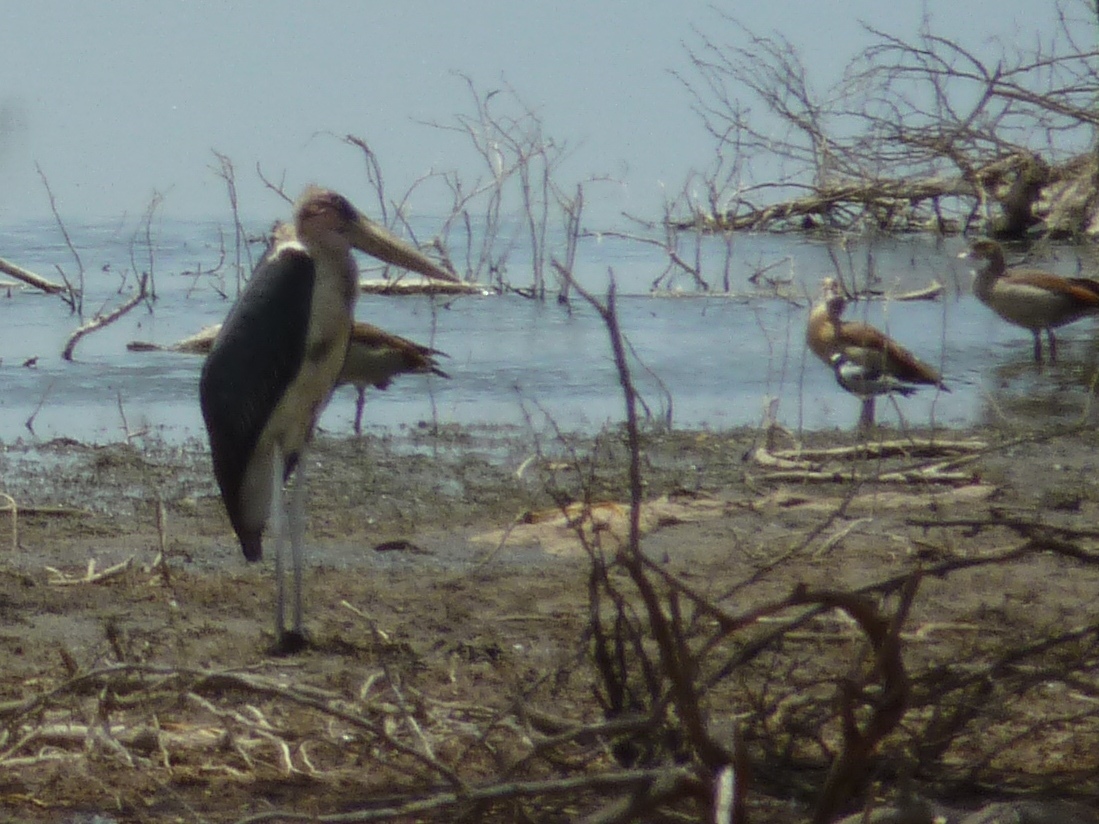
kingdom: Animalia
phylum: Chordata
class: Aves
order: Ciconiiformes
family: Ciconiidae
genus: Leptoptilos
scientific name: Leptoptilos crumenifer
